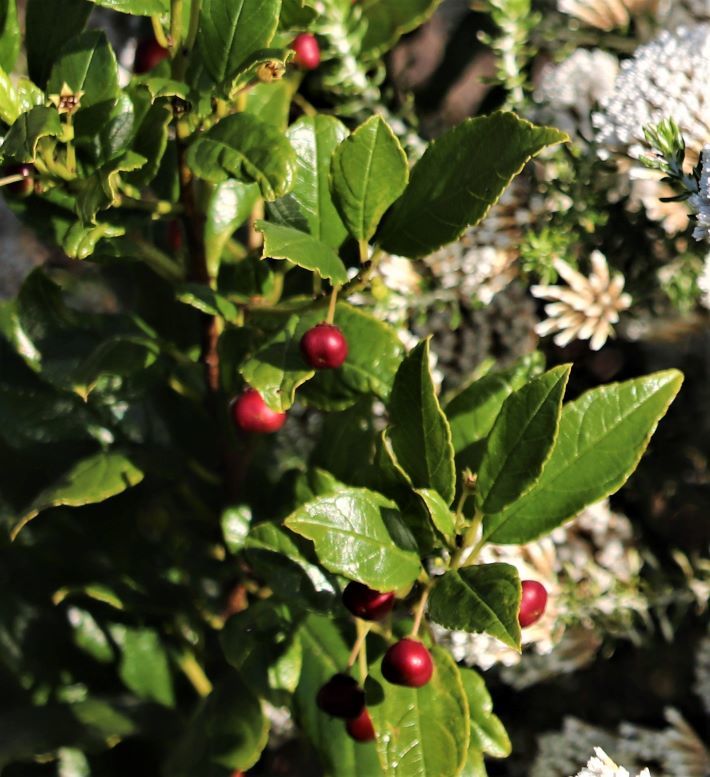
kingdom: Plantae
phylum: Tracheophyta
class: Magnoliopsida
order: Rosales
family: Rhamnaceae
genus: Rhamnus
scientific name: Rhamnus prinoides
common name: Dogwood
